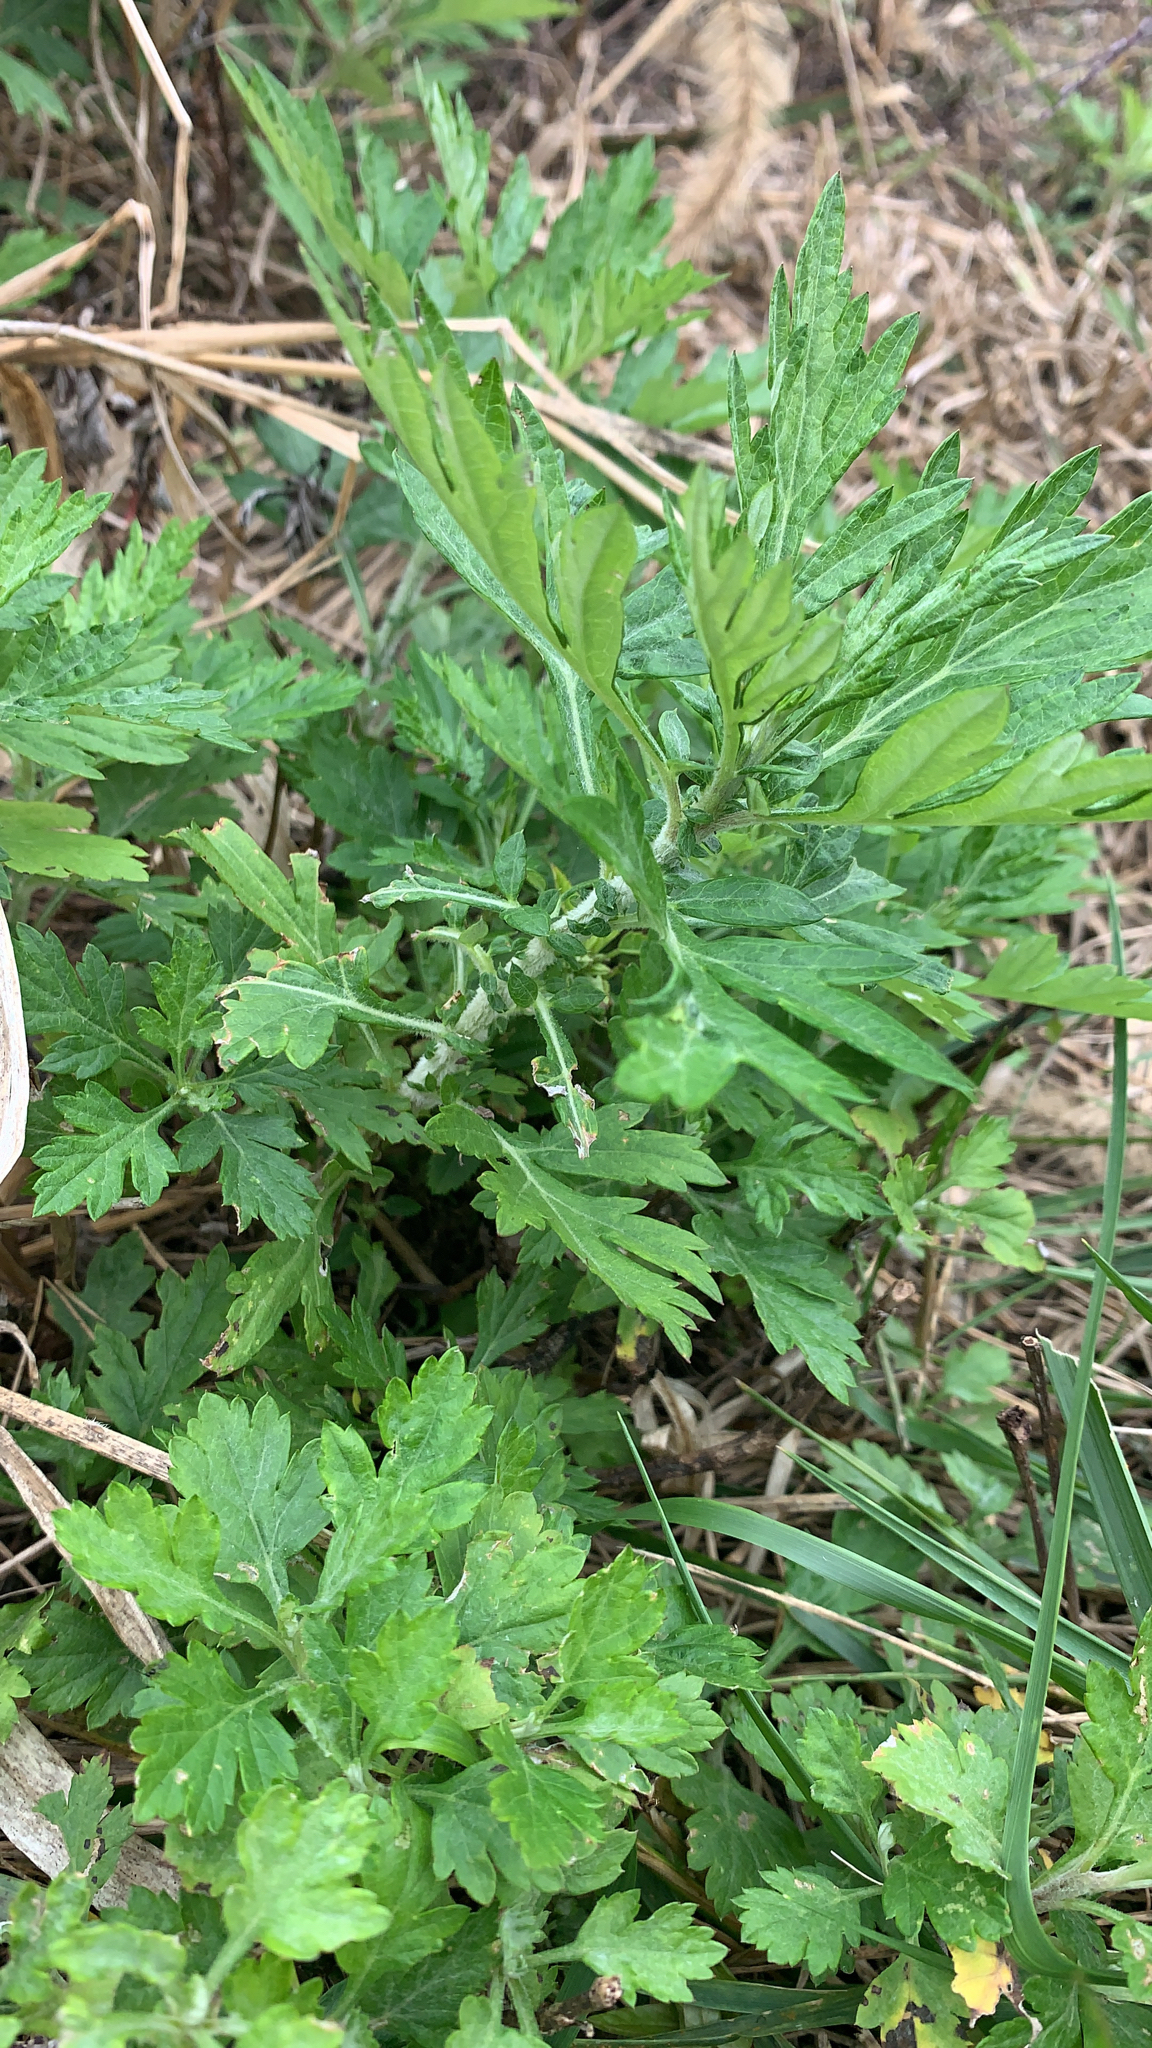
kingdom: Plantae
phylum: Tracheophyta
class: Magnoliopsida
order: Asterales
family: Asteraceae
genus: Artemisia
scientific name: Artemisia vulgaris
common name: Mugwort
